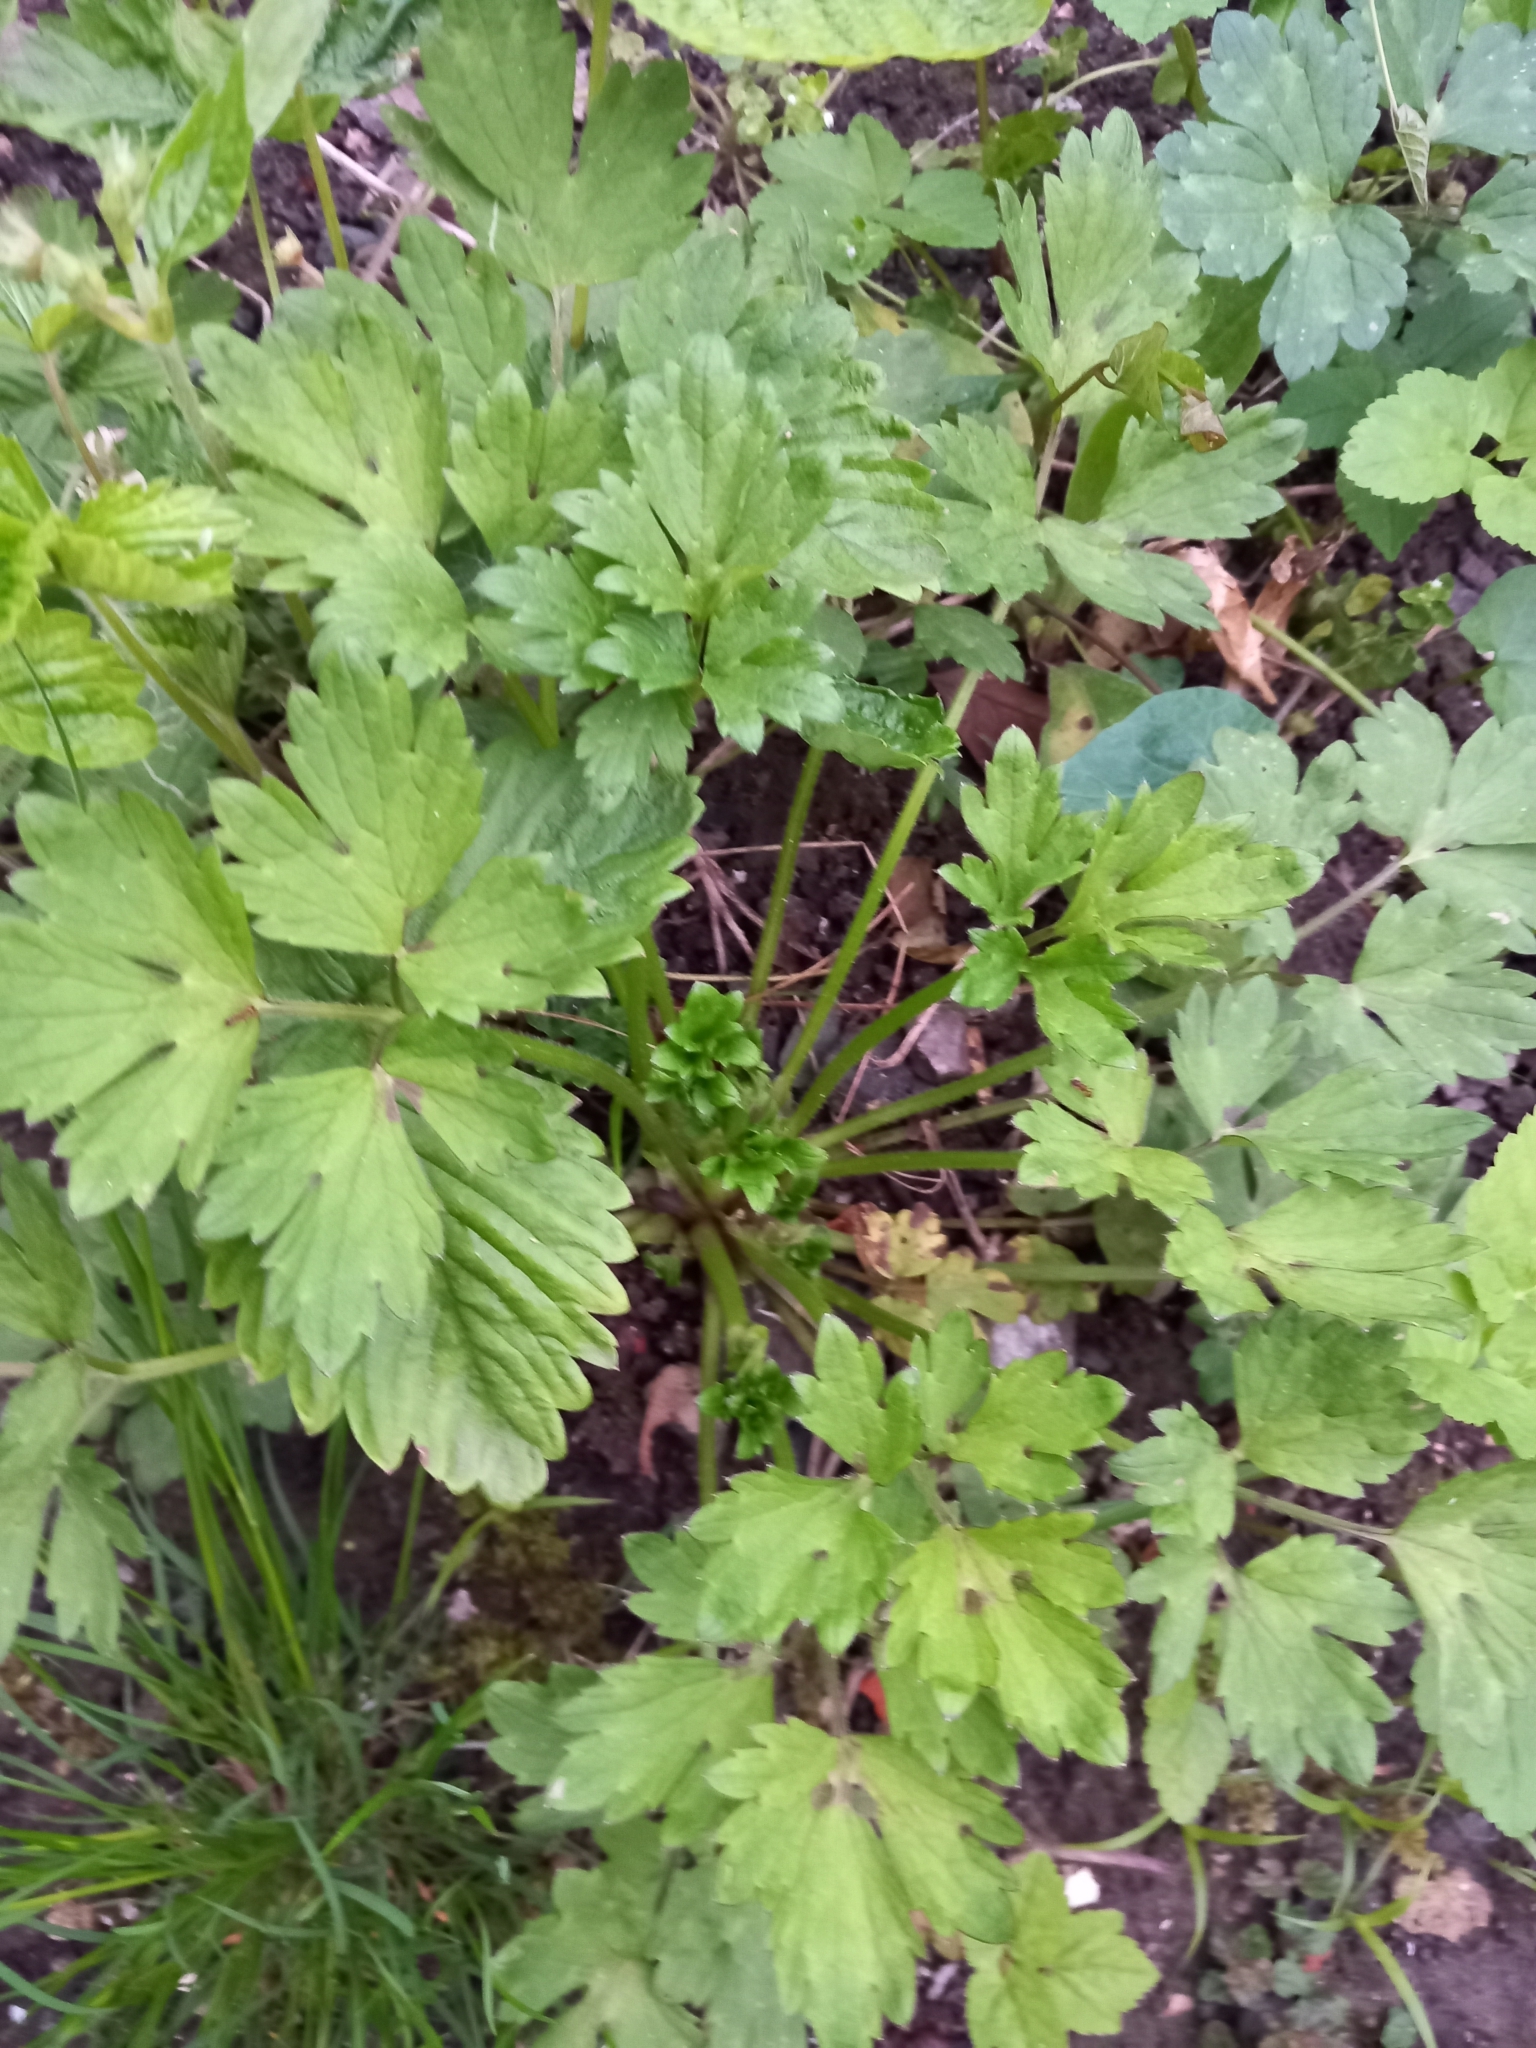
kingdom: Plantae
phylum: Tracheophyta
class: Magnoliopsida
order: Ranunculales
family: Ranunculaceae
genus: Ranunculus
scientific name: Ranunculus repens
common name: Creeping buttercup
